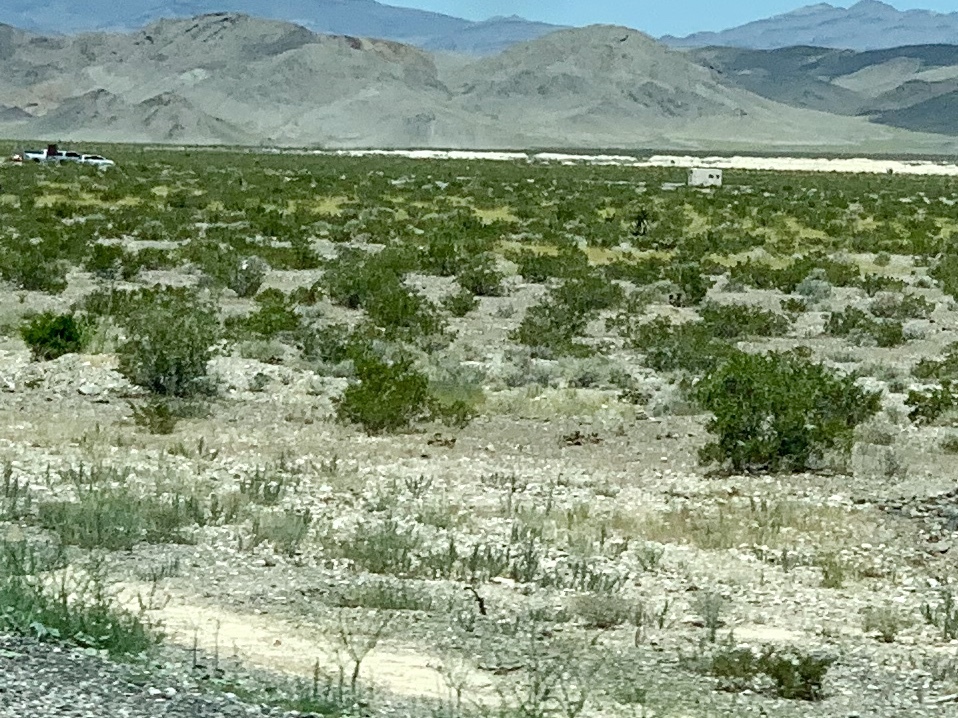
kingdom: Plantae
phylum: Tracheophyta
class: Magnoliopsida
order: Zygophyllales
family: Zygophyllaceae
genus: Larrea
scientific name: Larrea tridentata
